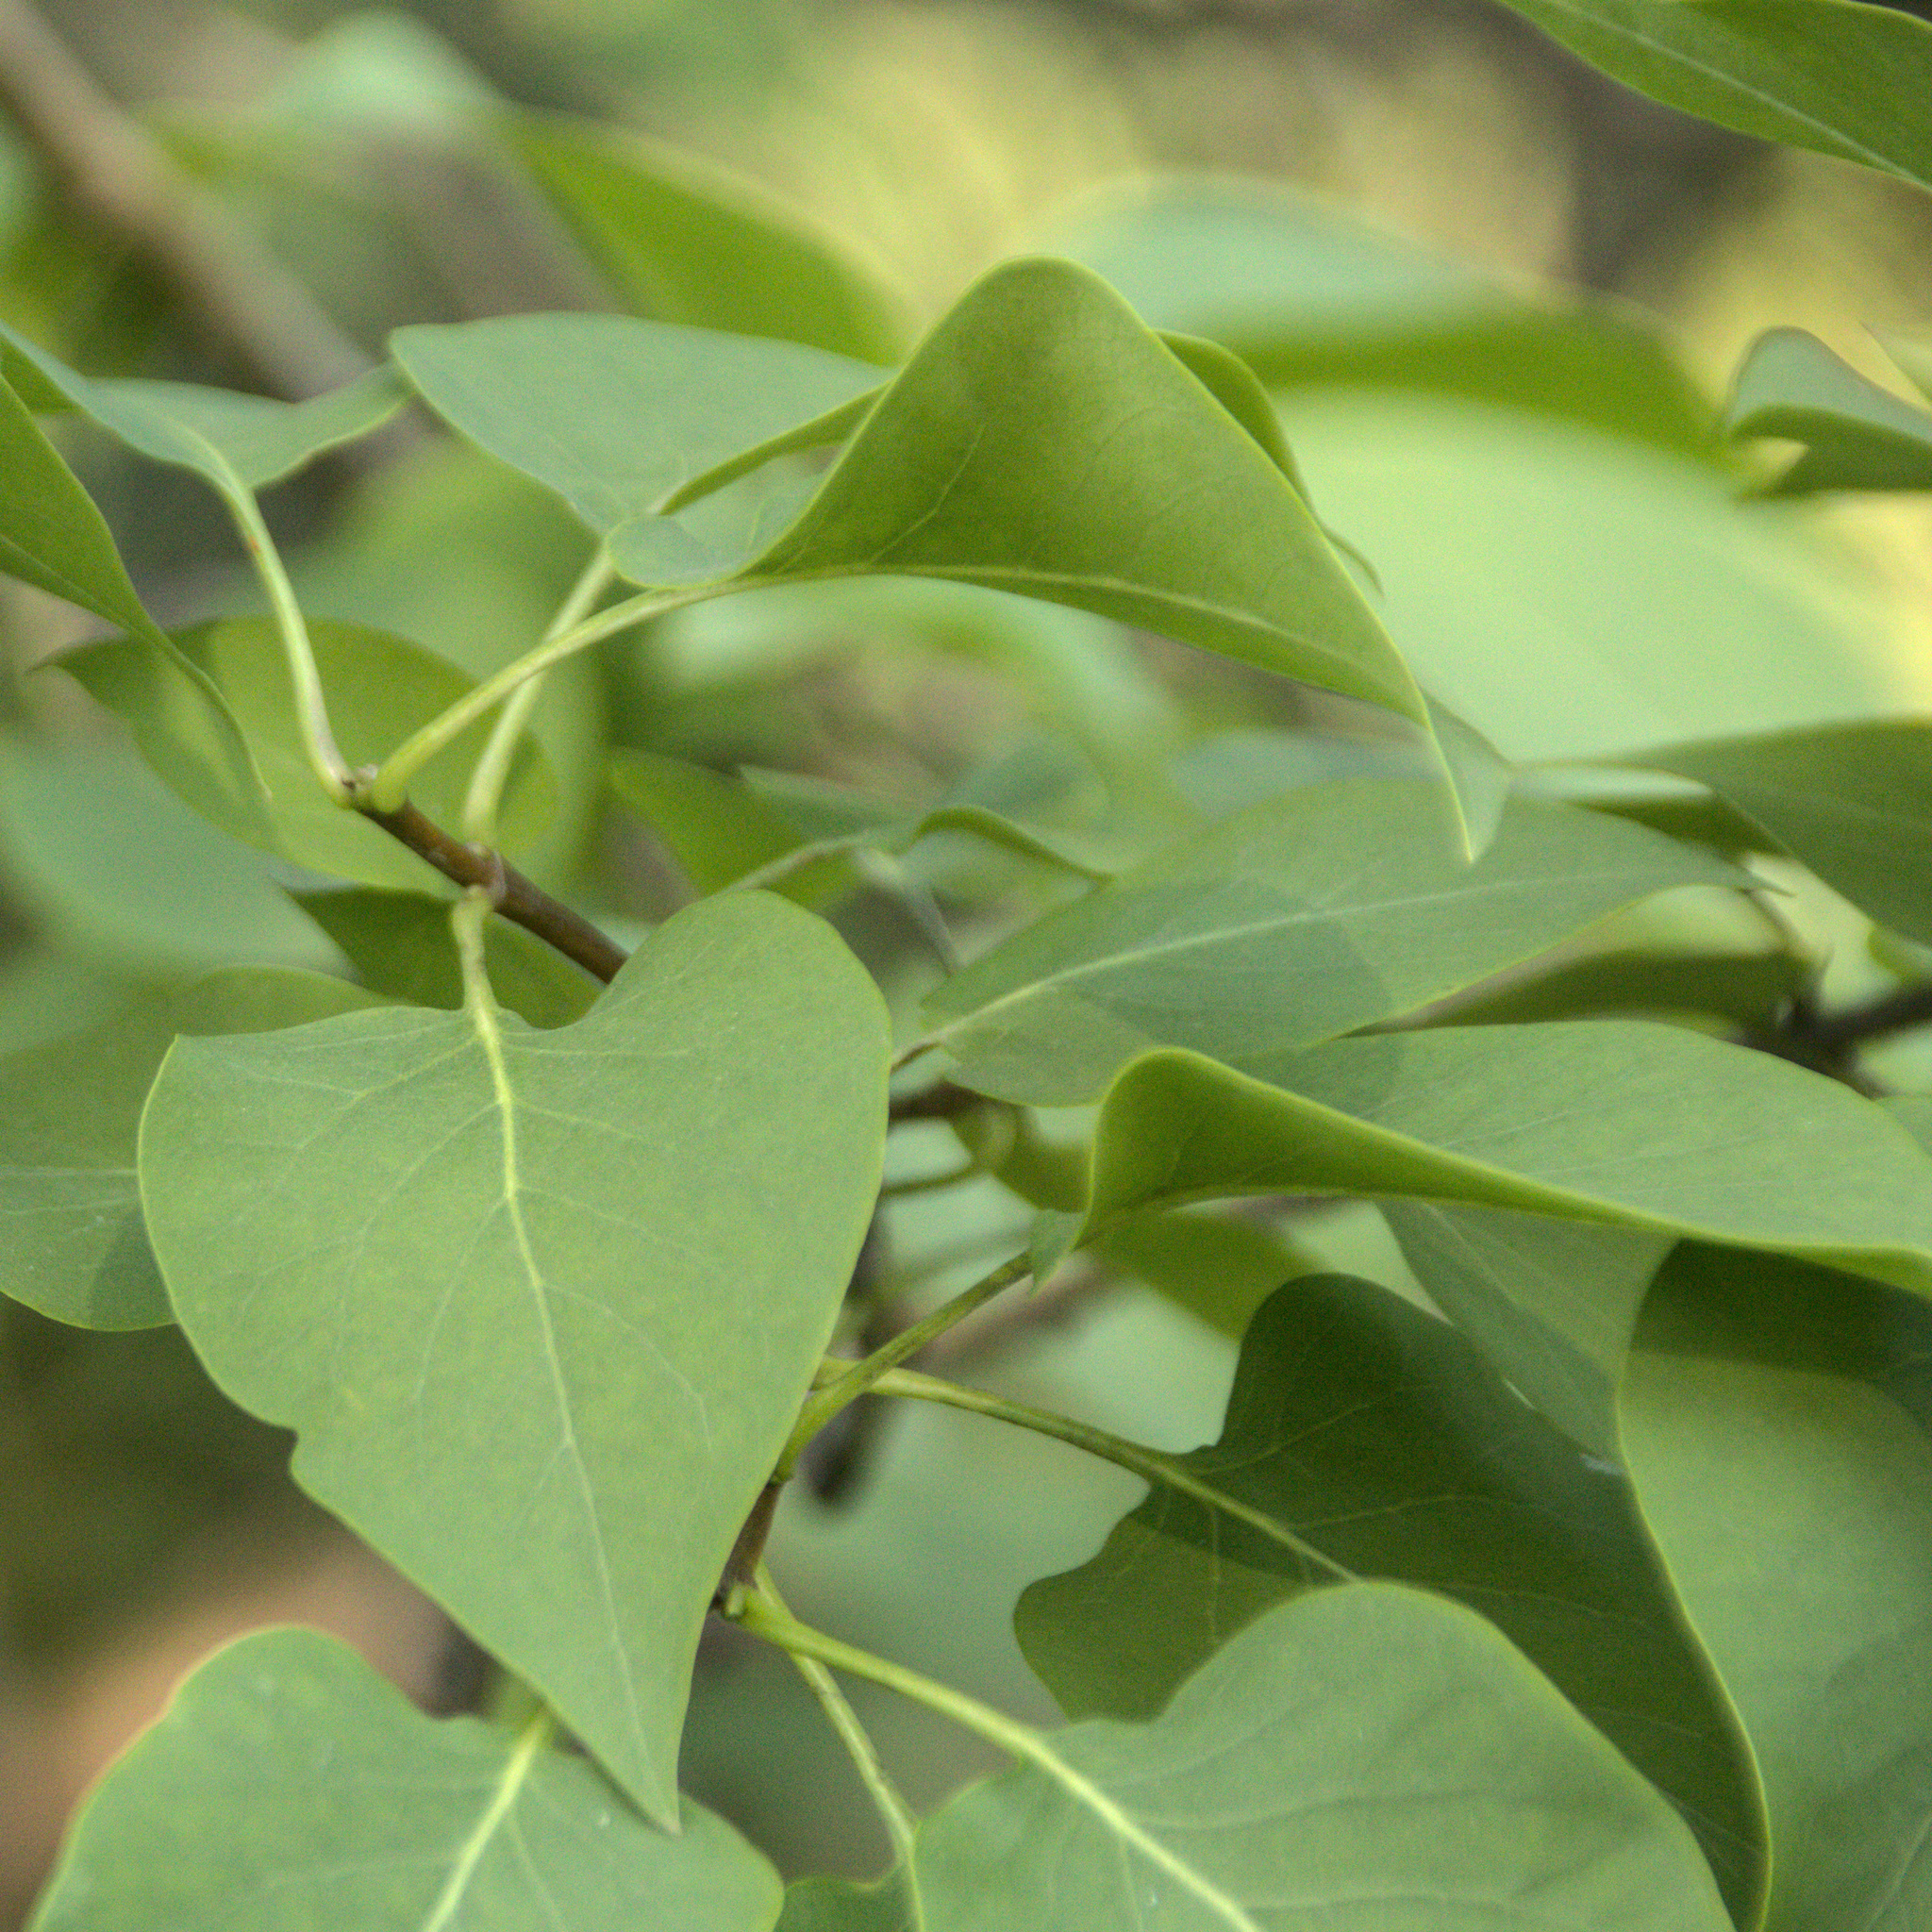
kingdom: Plantae
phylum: Tracheophyta
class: Magnoliopsida
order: Lamiales
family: Oleaceae
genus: Syringa
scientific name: Syringa vulgaris
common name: Common lilac
